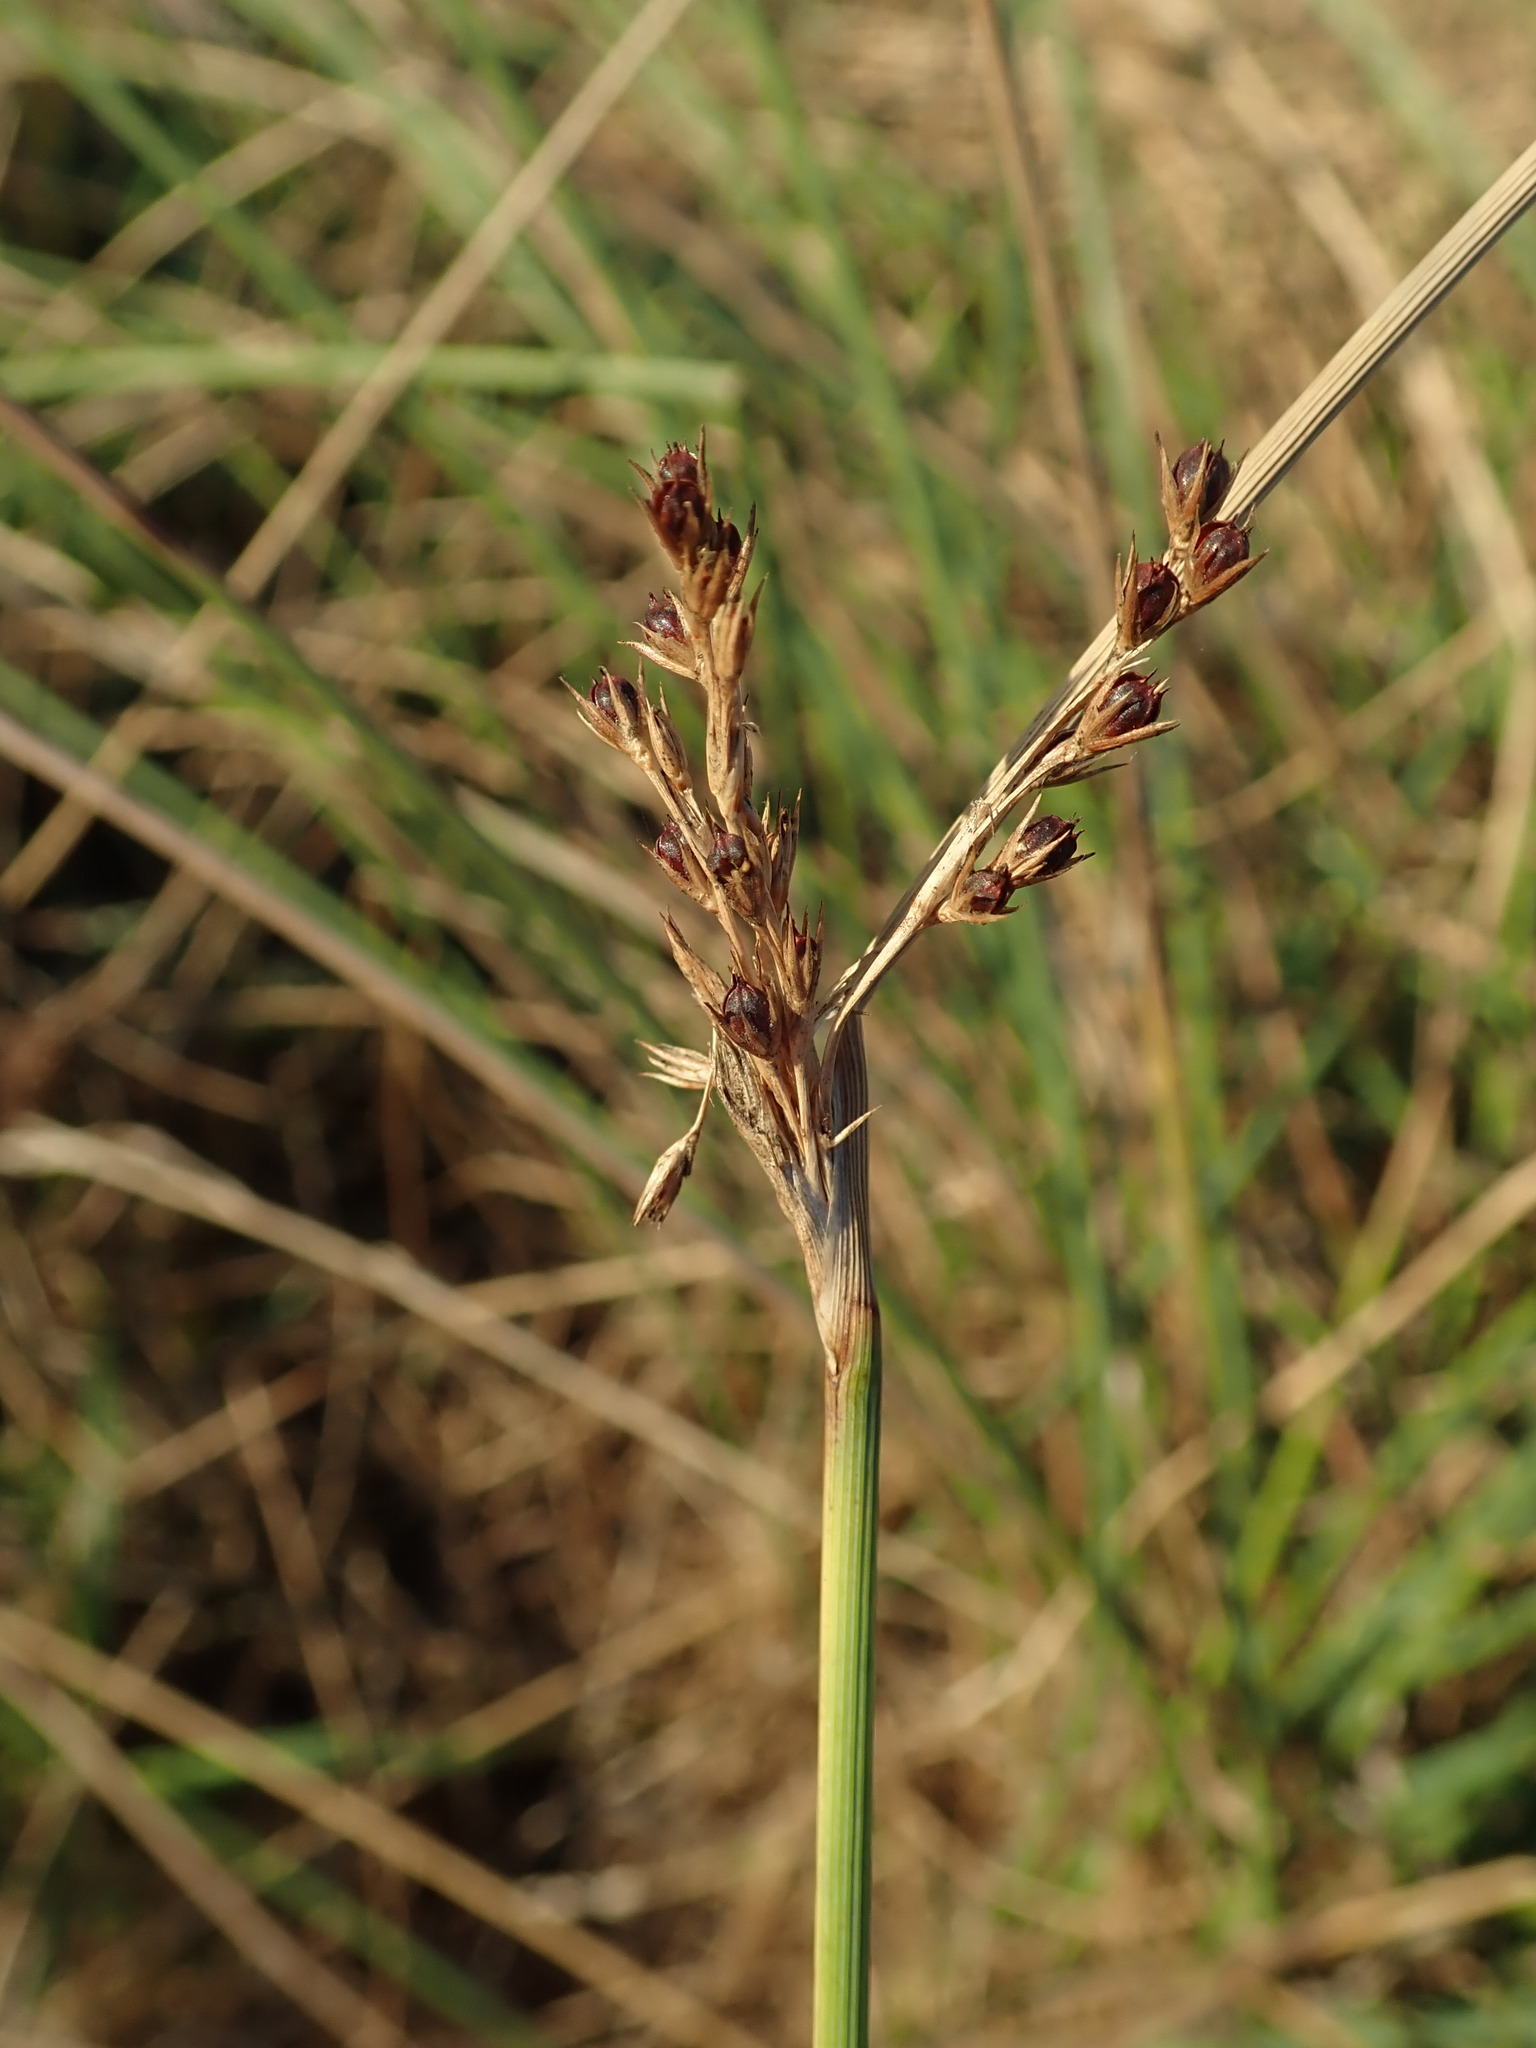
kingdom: Plantae
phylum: Tracheophyta
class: Liliopsida
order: Poales
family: Juncaceae
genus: Juncus
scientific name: Juncus inflexus
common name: Hard rush
